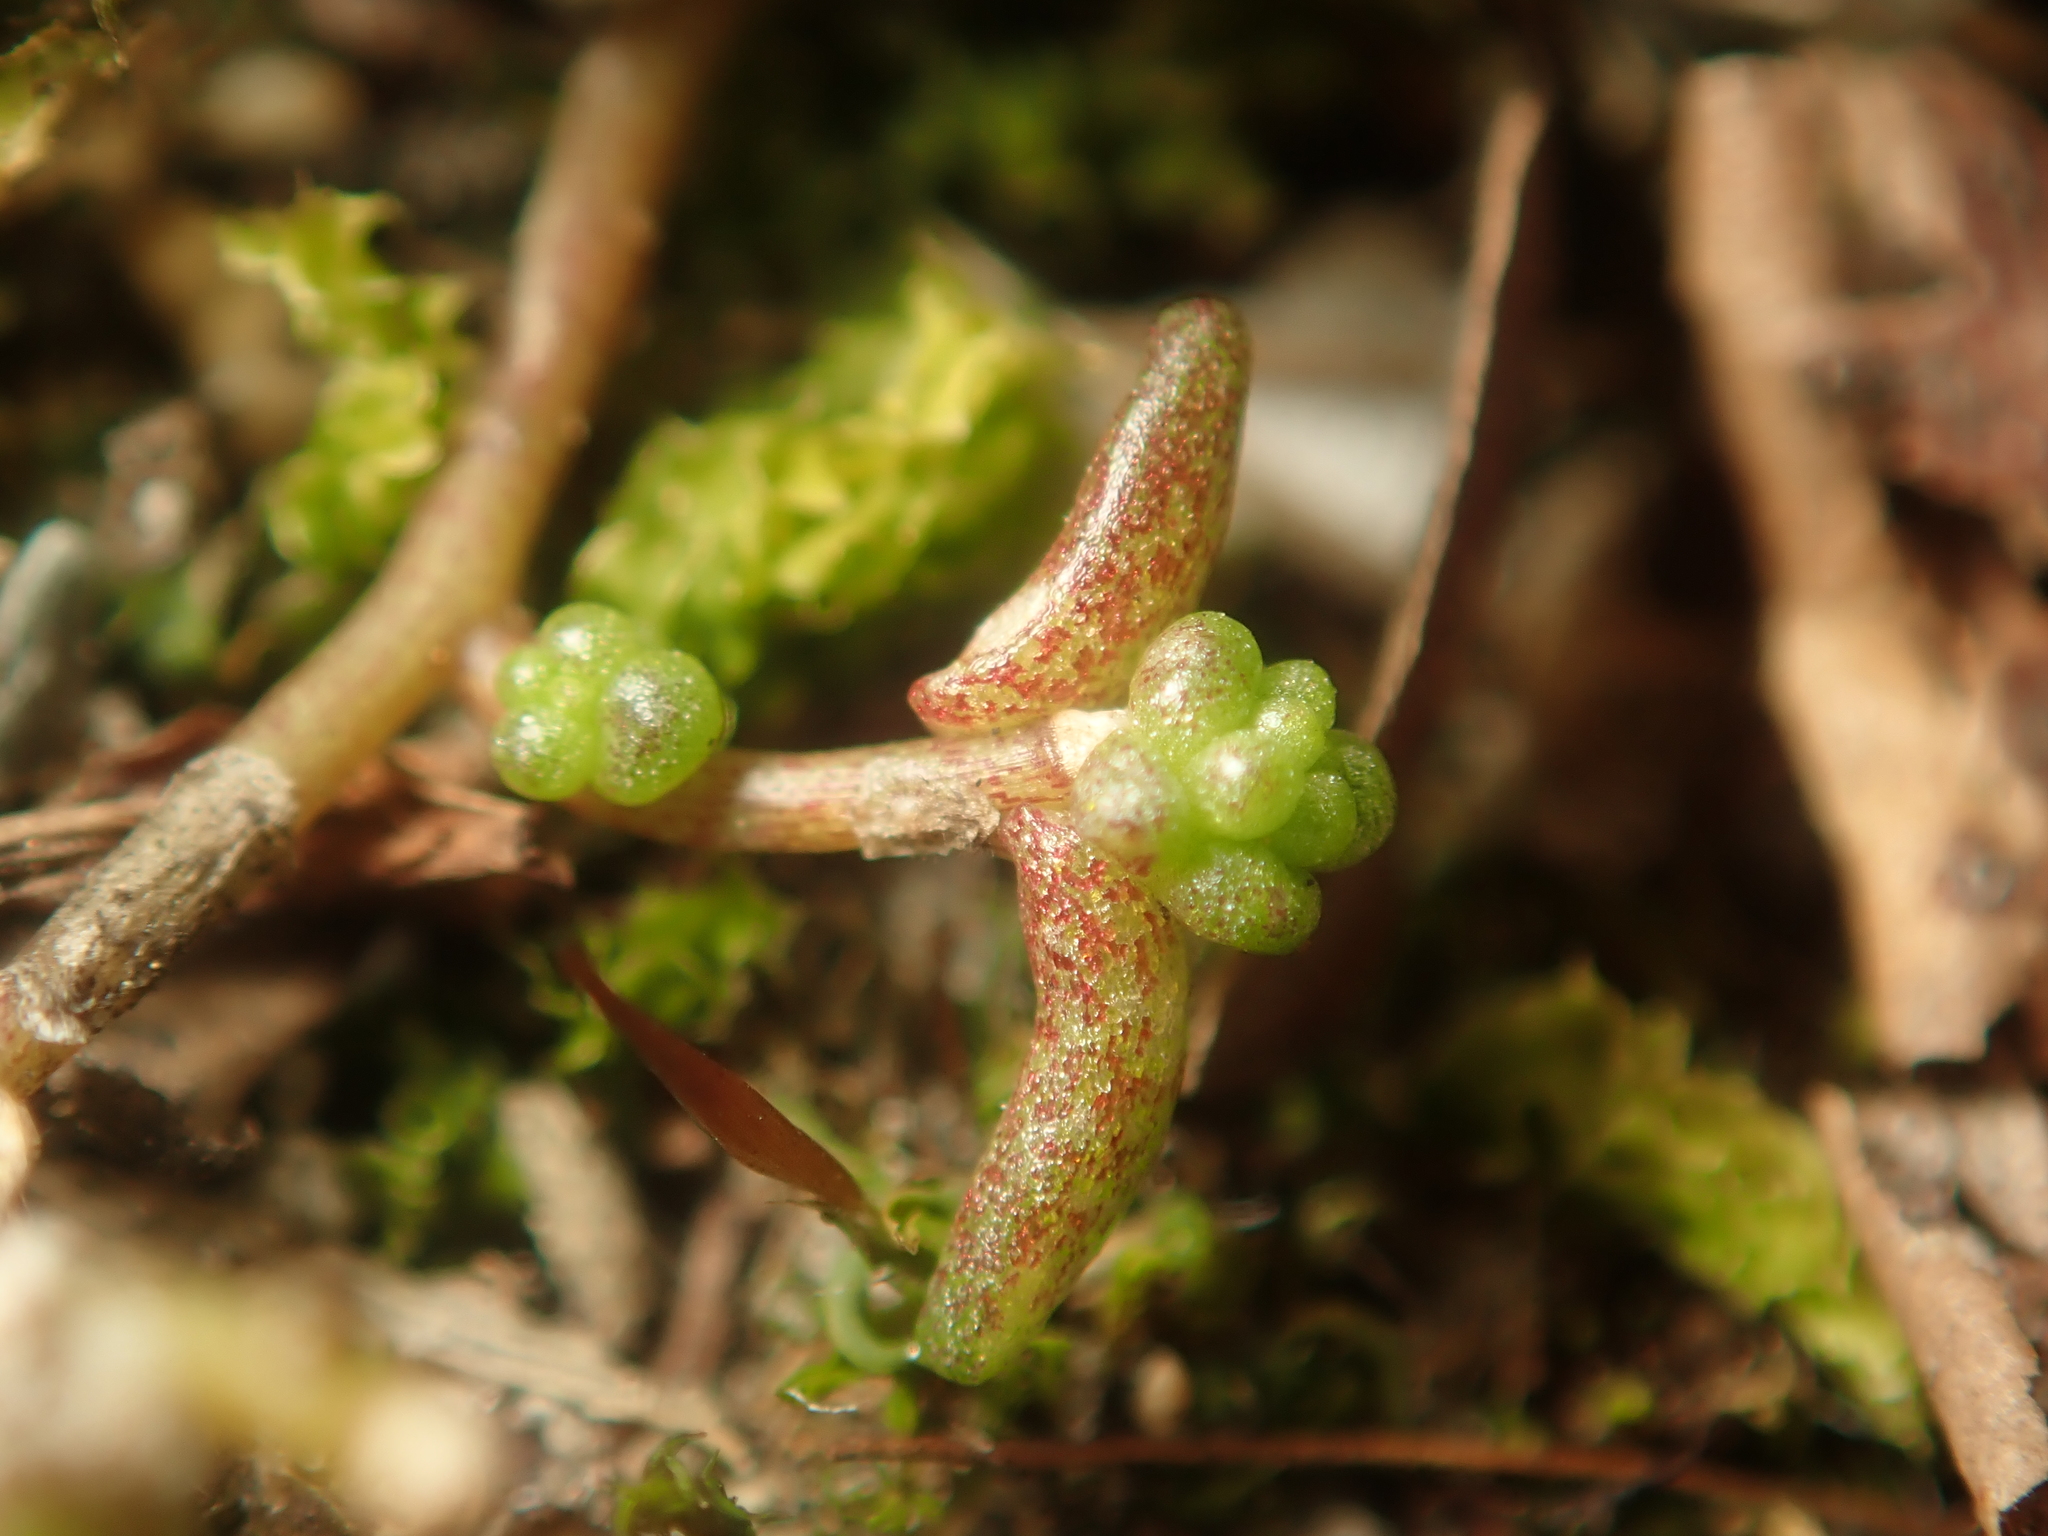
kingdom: Plantae
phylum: Tracheophyta
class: Magnoliopsida
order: Saxifragales
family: Crassulaceae
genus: Sedum
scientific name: Sedum acre
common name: Biting stonecrop
